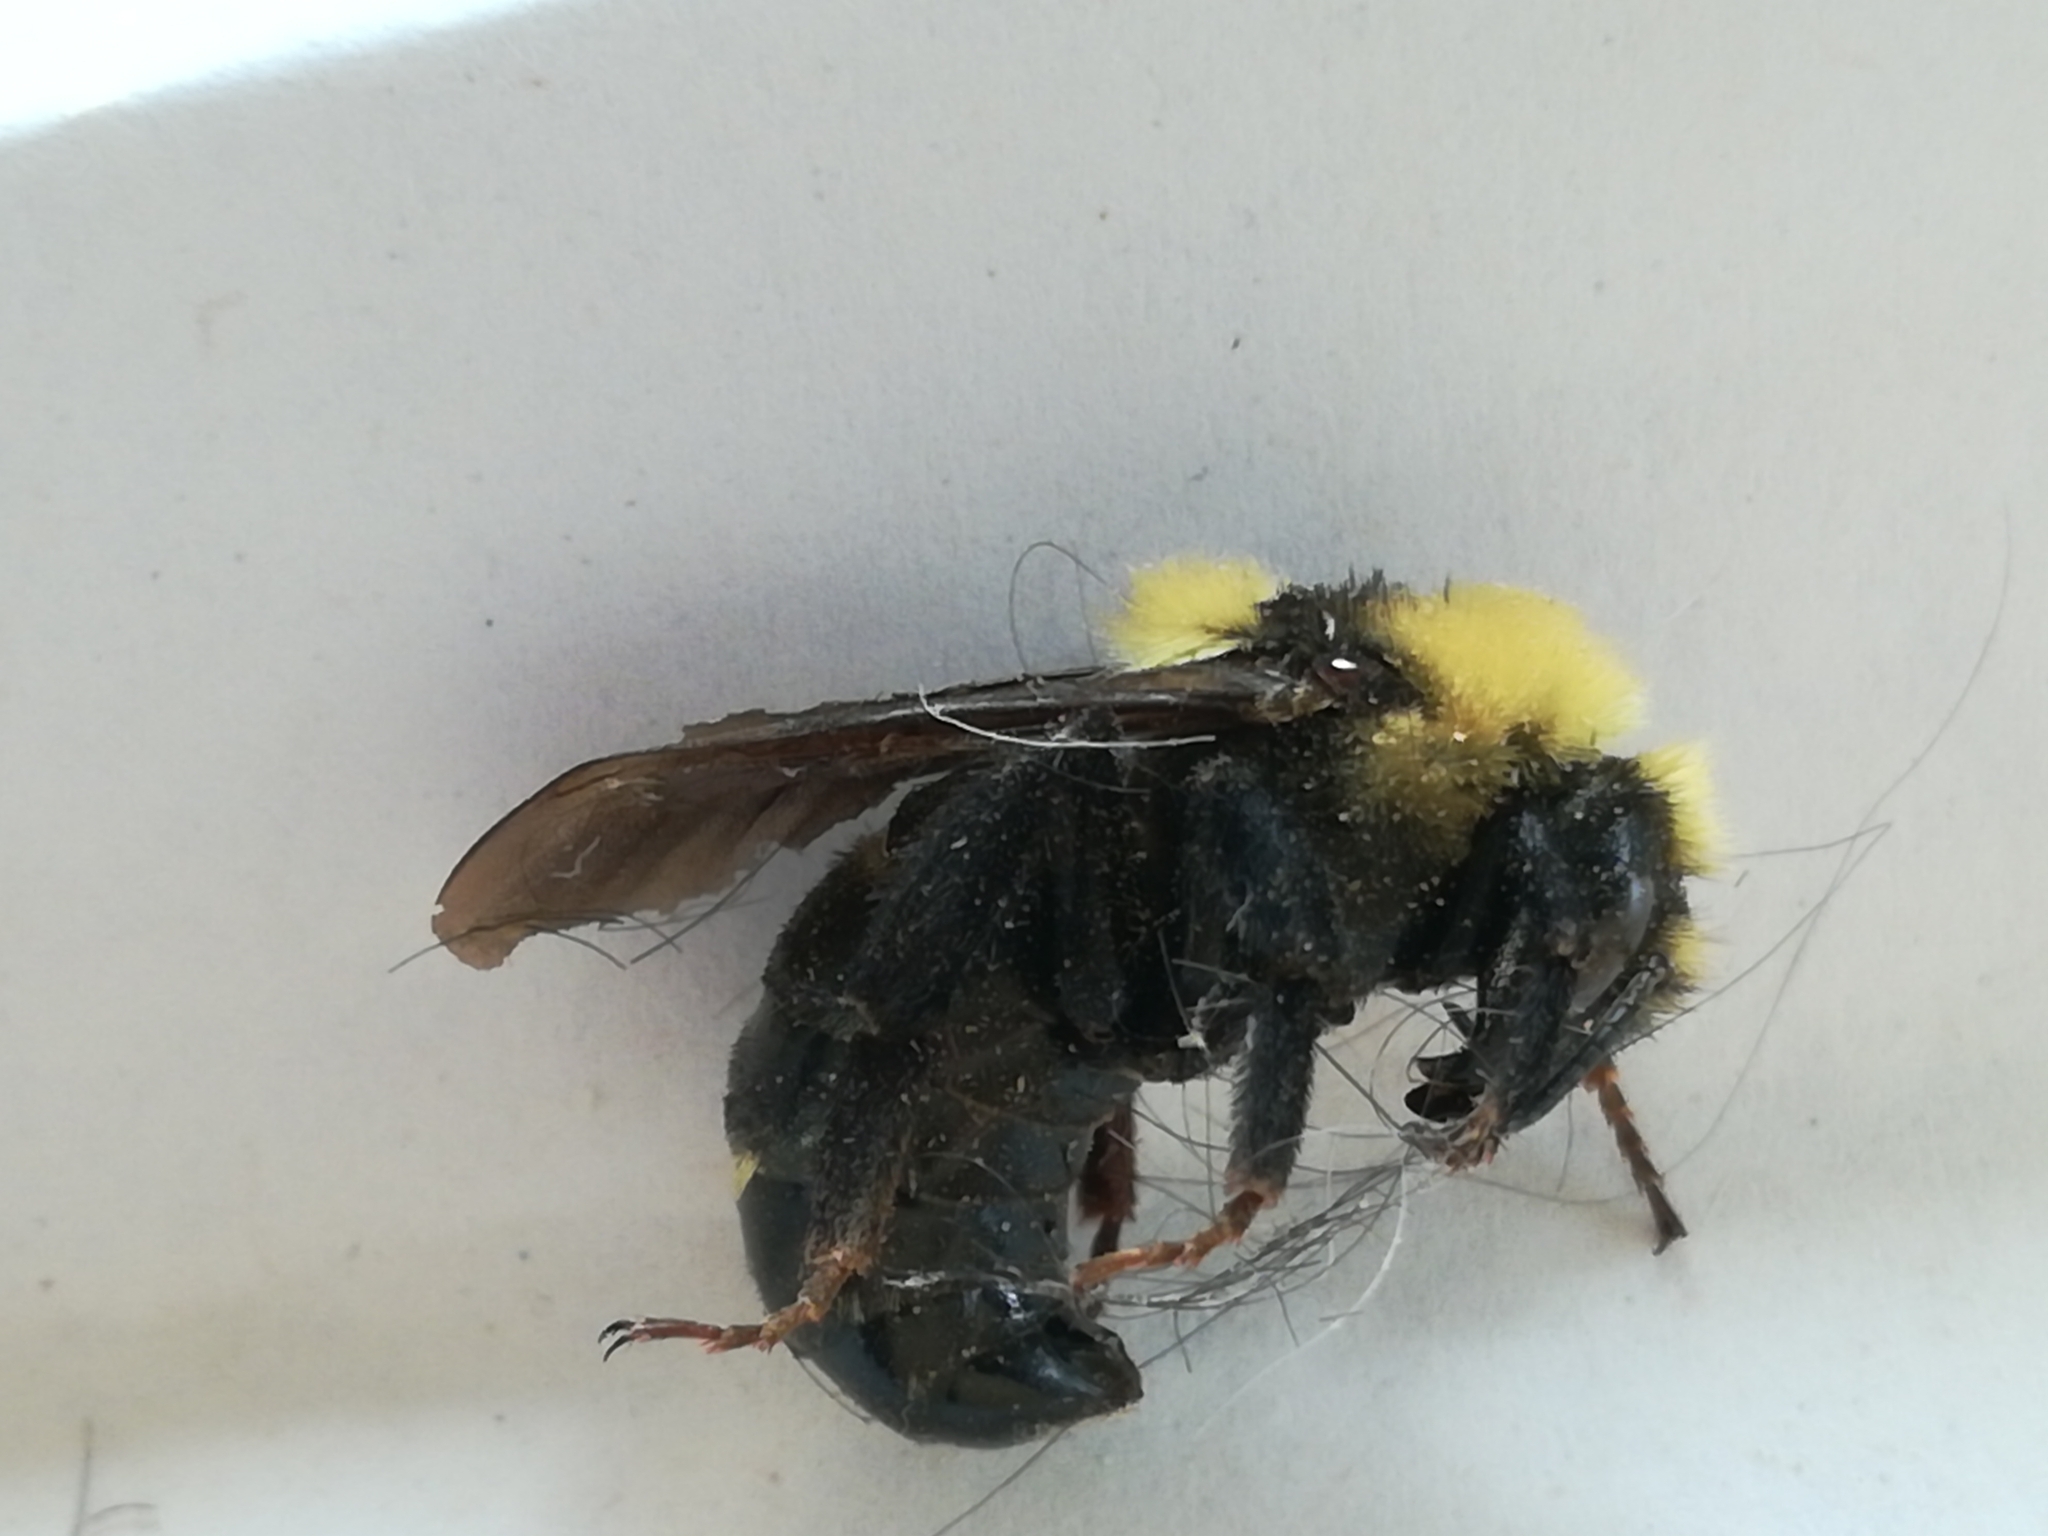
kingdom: Animalia
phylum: Arthropoda
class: Insecta
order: Hymenoptera
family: Apidae
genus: Bombus
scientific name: Bombus insularis
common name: Indiscriminate cuckoo bumble bee
